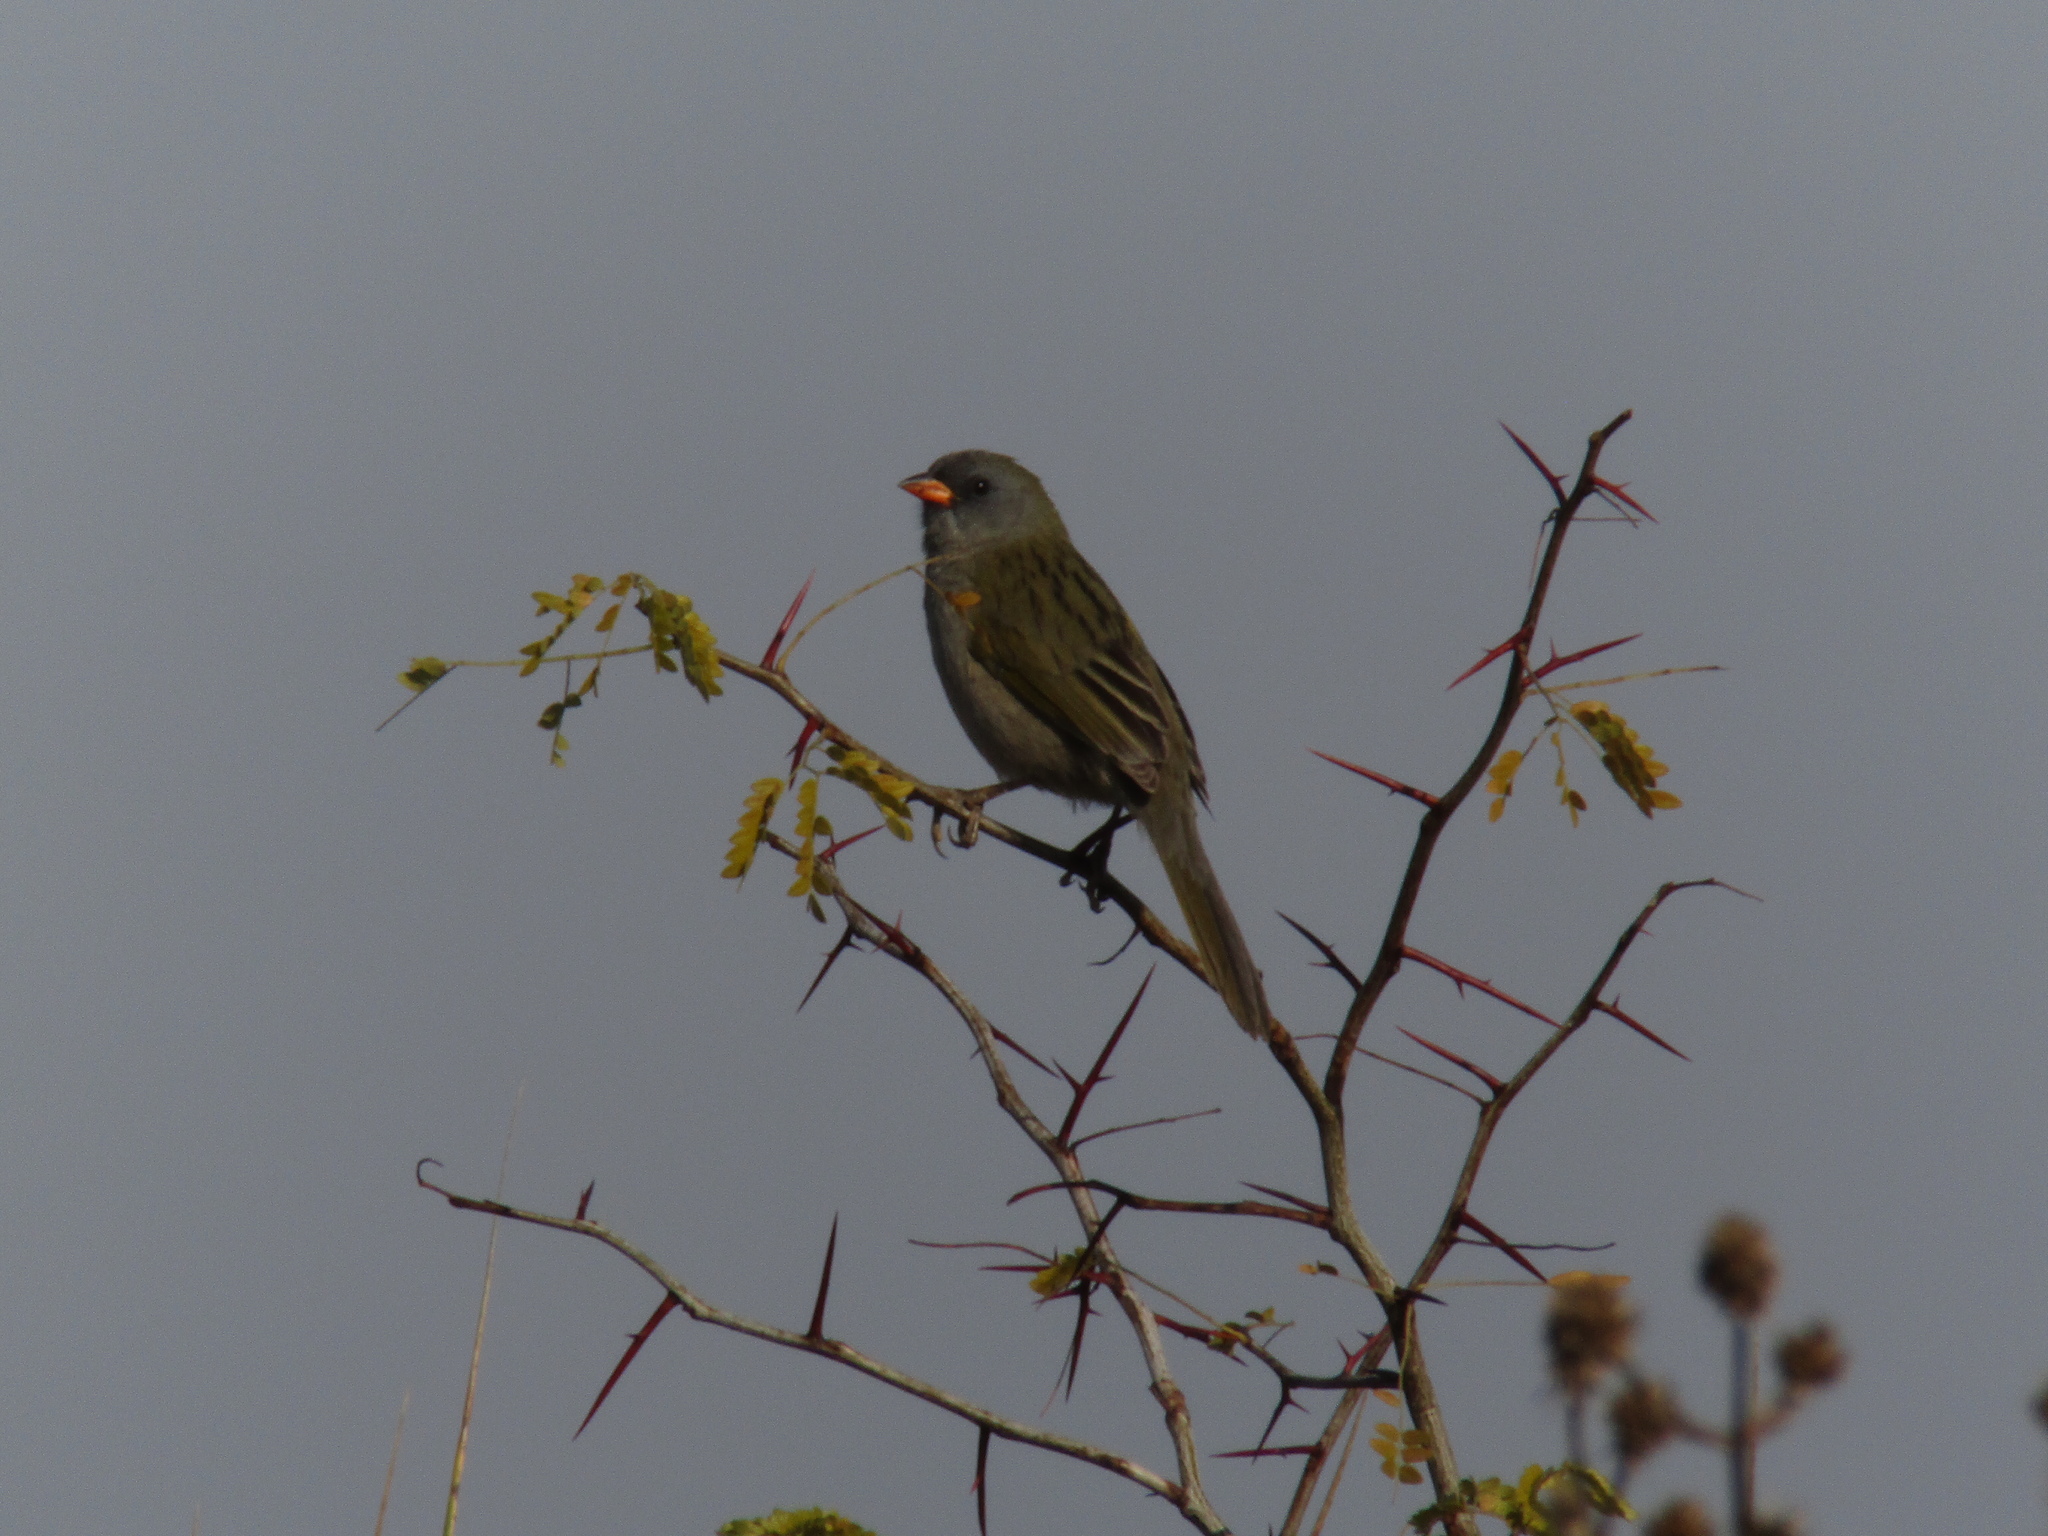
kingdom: Animalia
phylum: Chordata
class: Aves
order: Passeriformes
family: Thraupidae
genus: Embernagra
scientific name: Embernagra platensis
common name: Pampa finch
